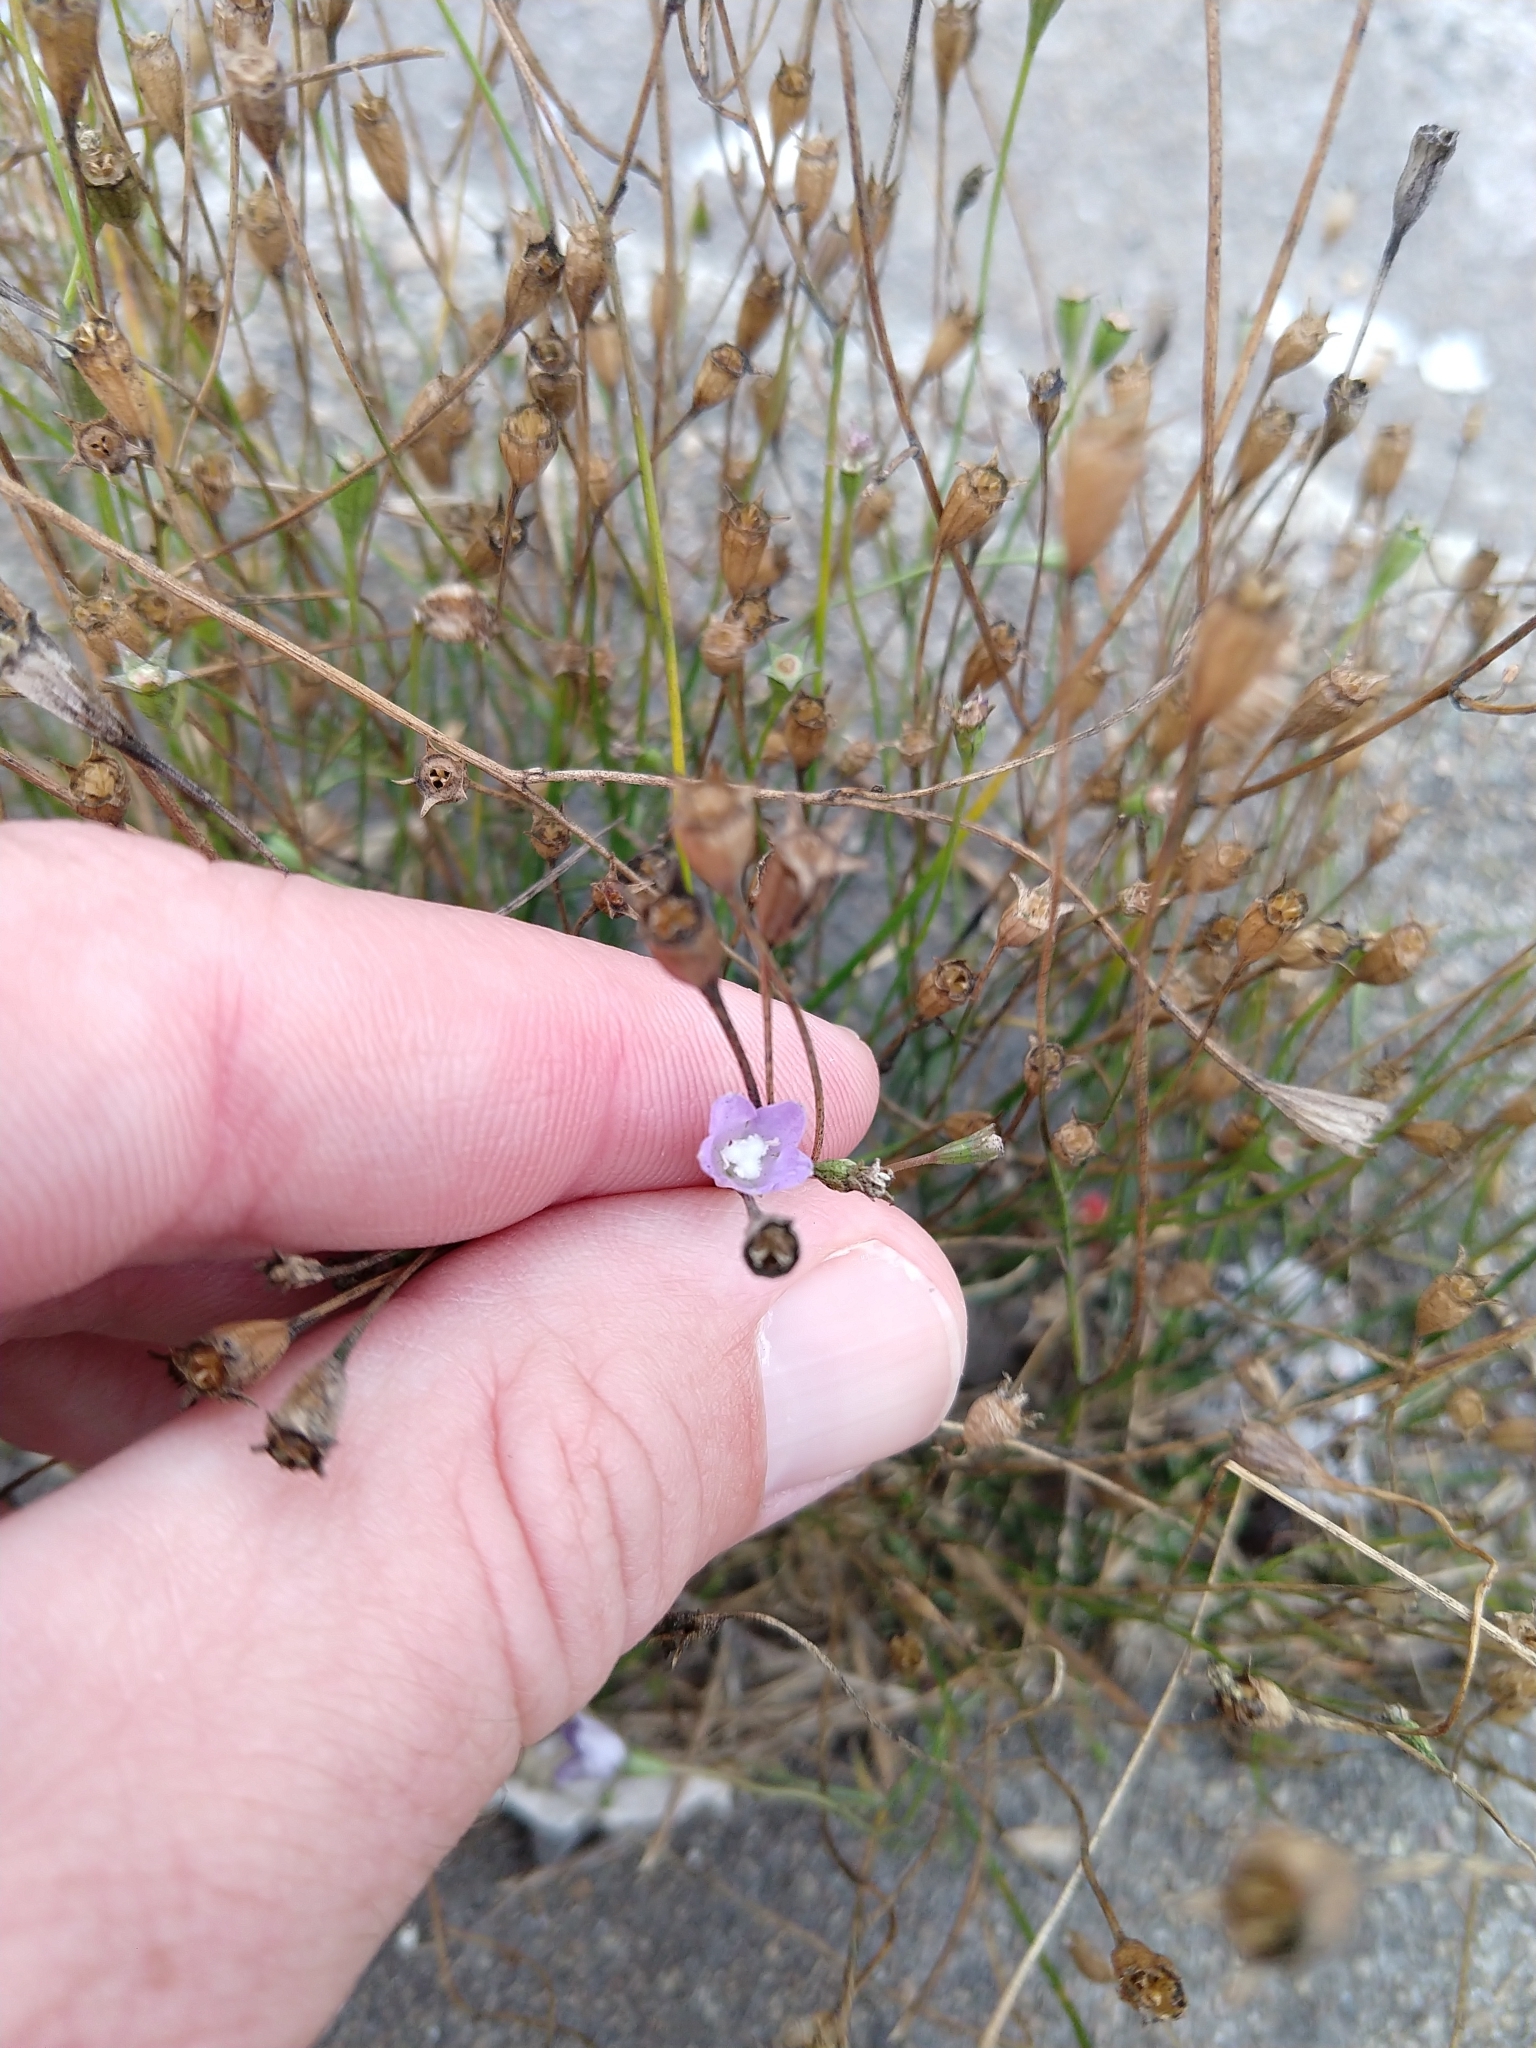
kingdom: Plantae
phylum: Tracheophyta
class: Magnoliopsida
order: Asterales
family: Campanulaceae
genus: Wahlenbergia
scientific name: Wahlenbergia marginata
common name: Southern rockbell
